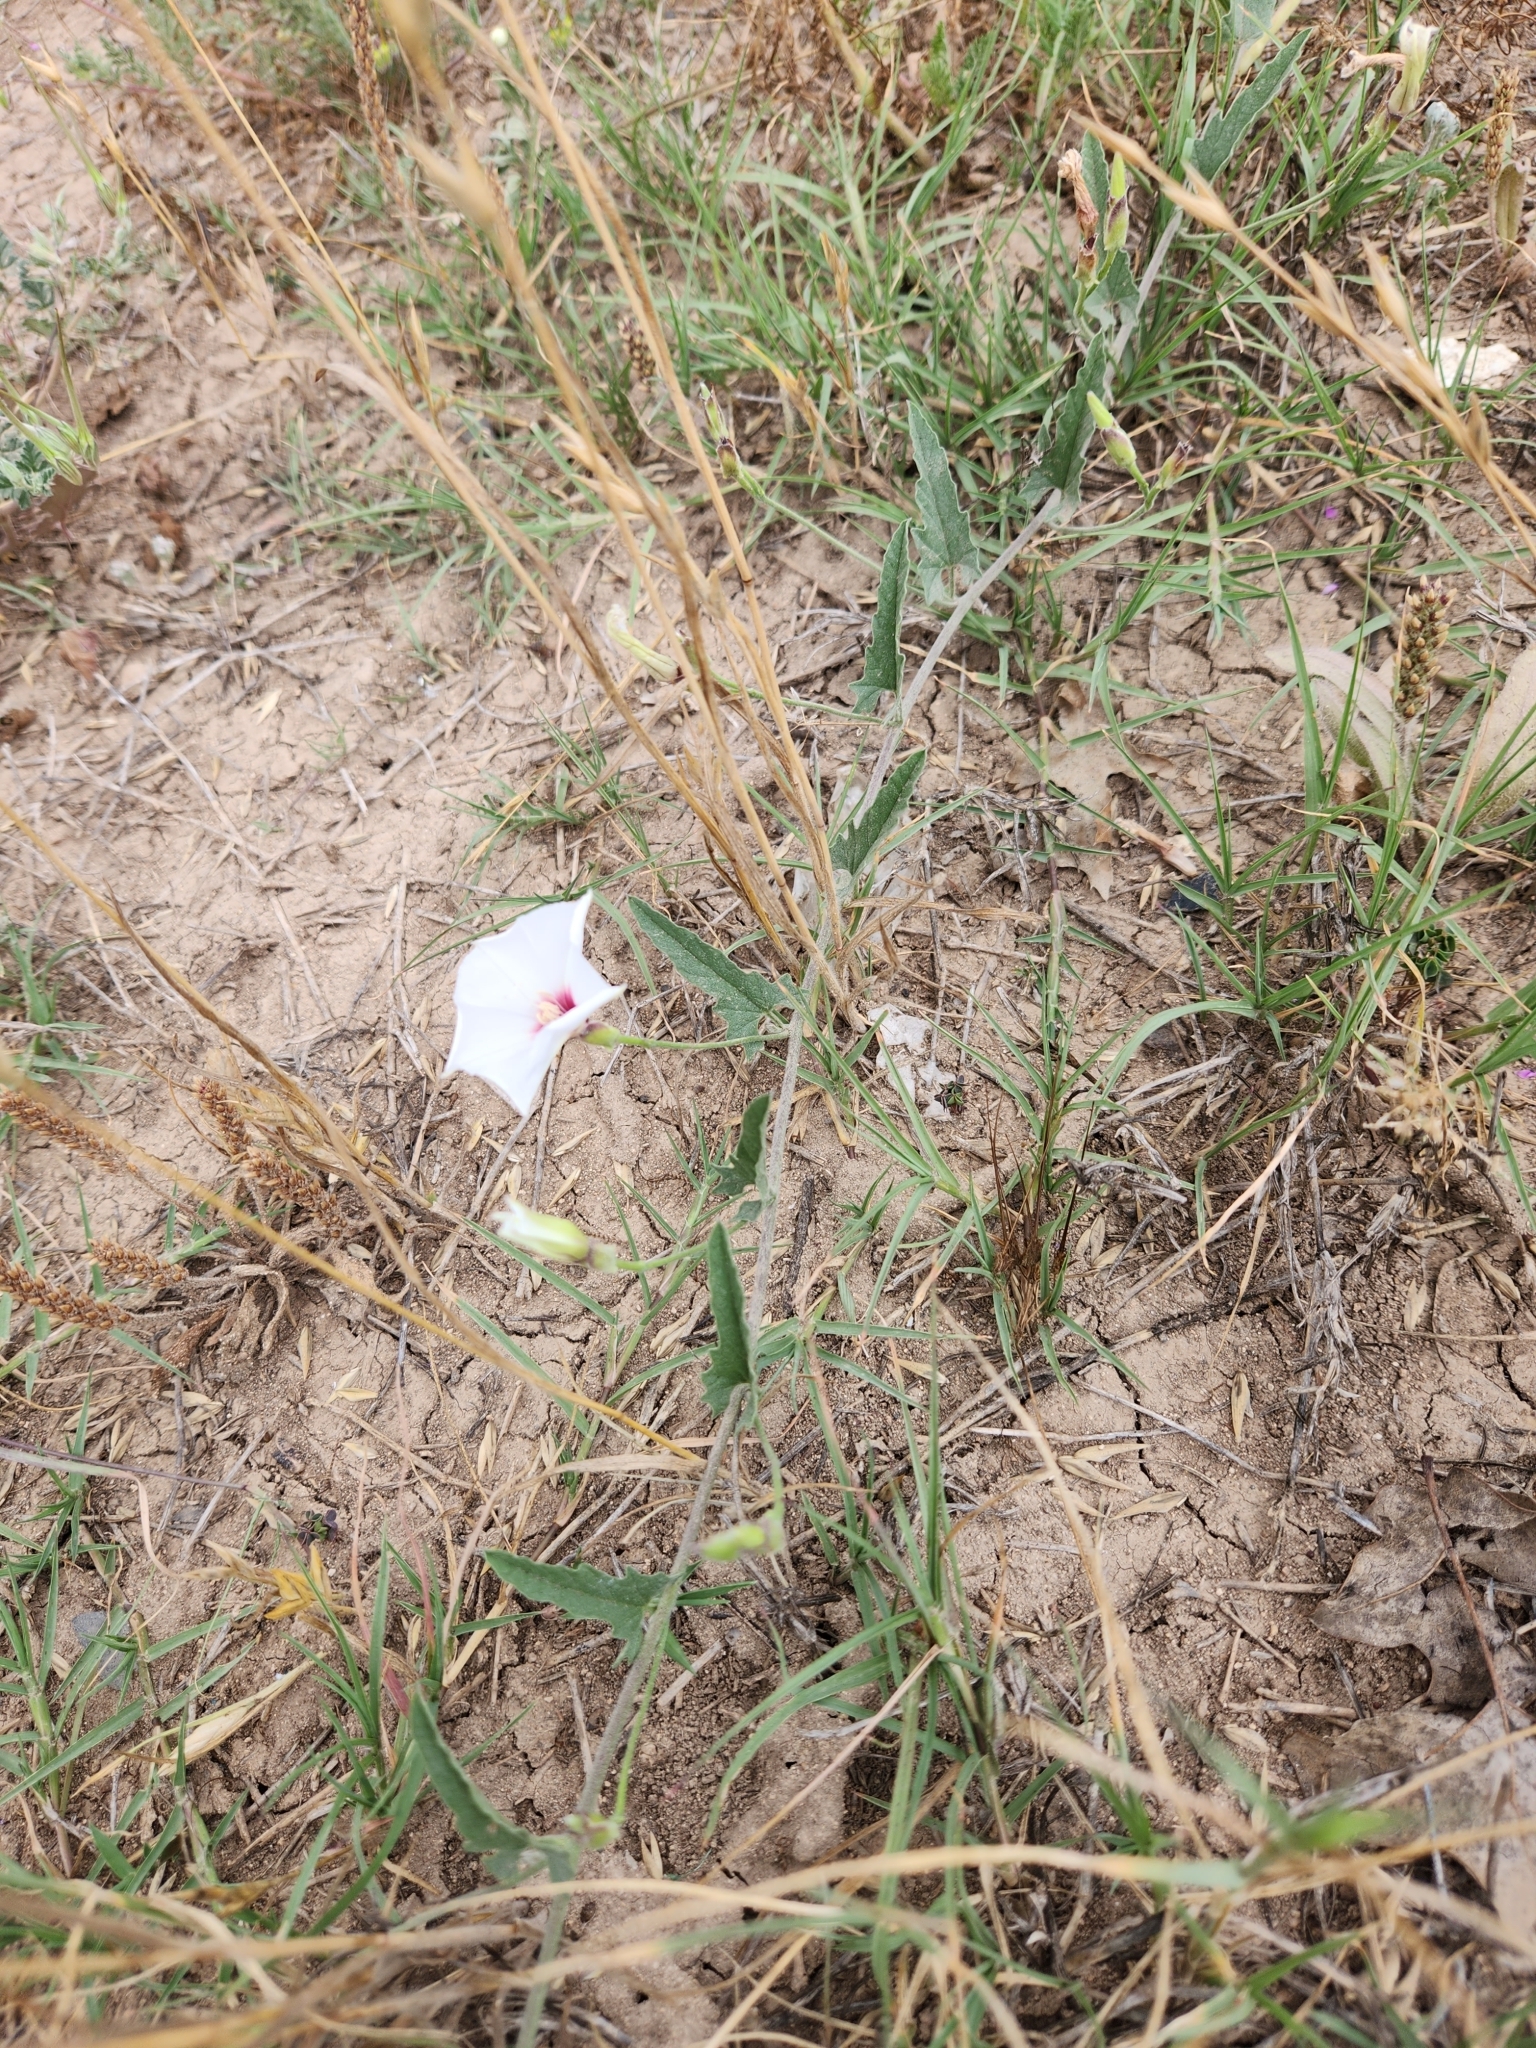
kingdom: Plantae
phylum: Tracheophyta
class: Magnoliopsida
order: Solanales
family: Convolvulaceae
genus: Convolvulus
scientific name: Convolvulus equitans
